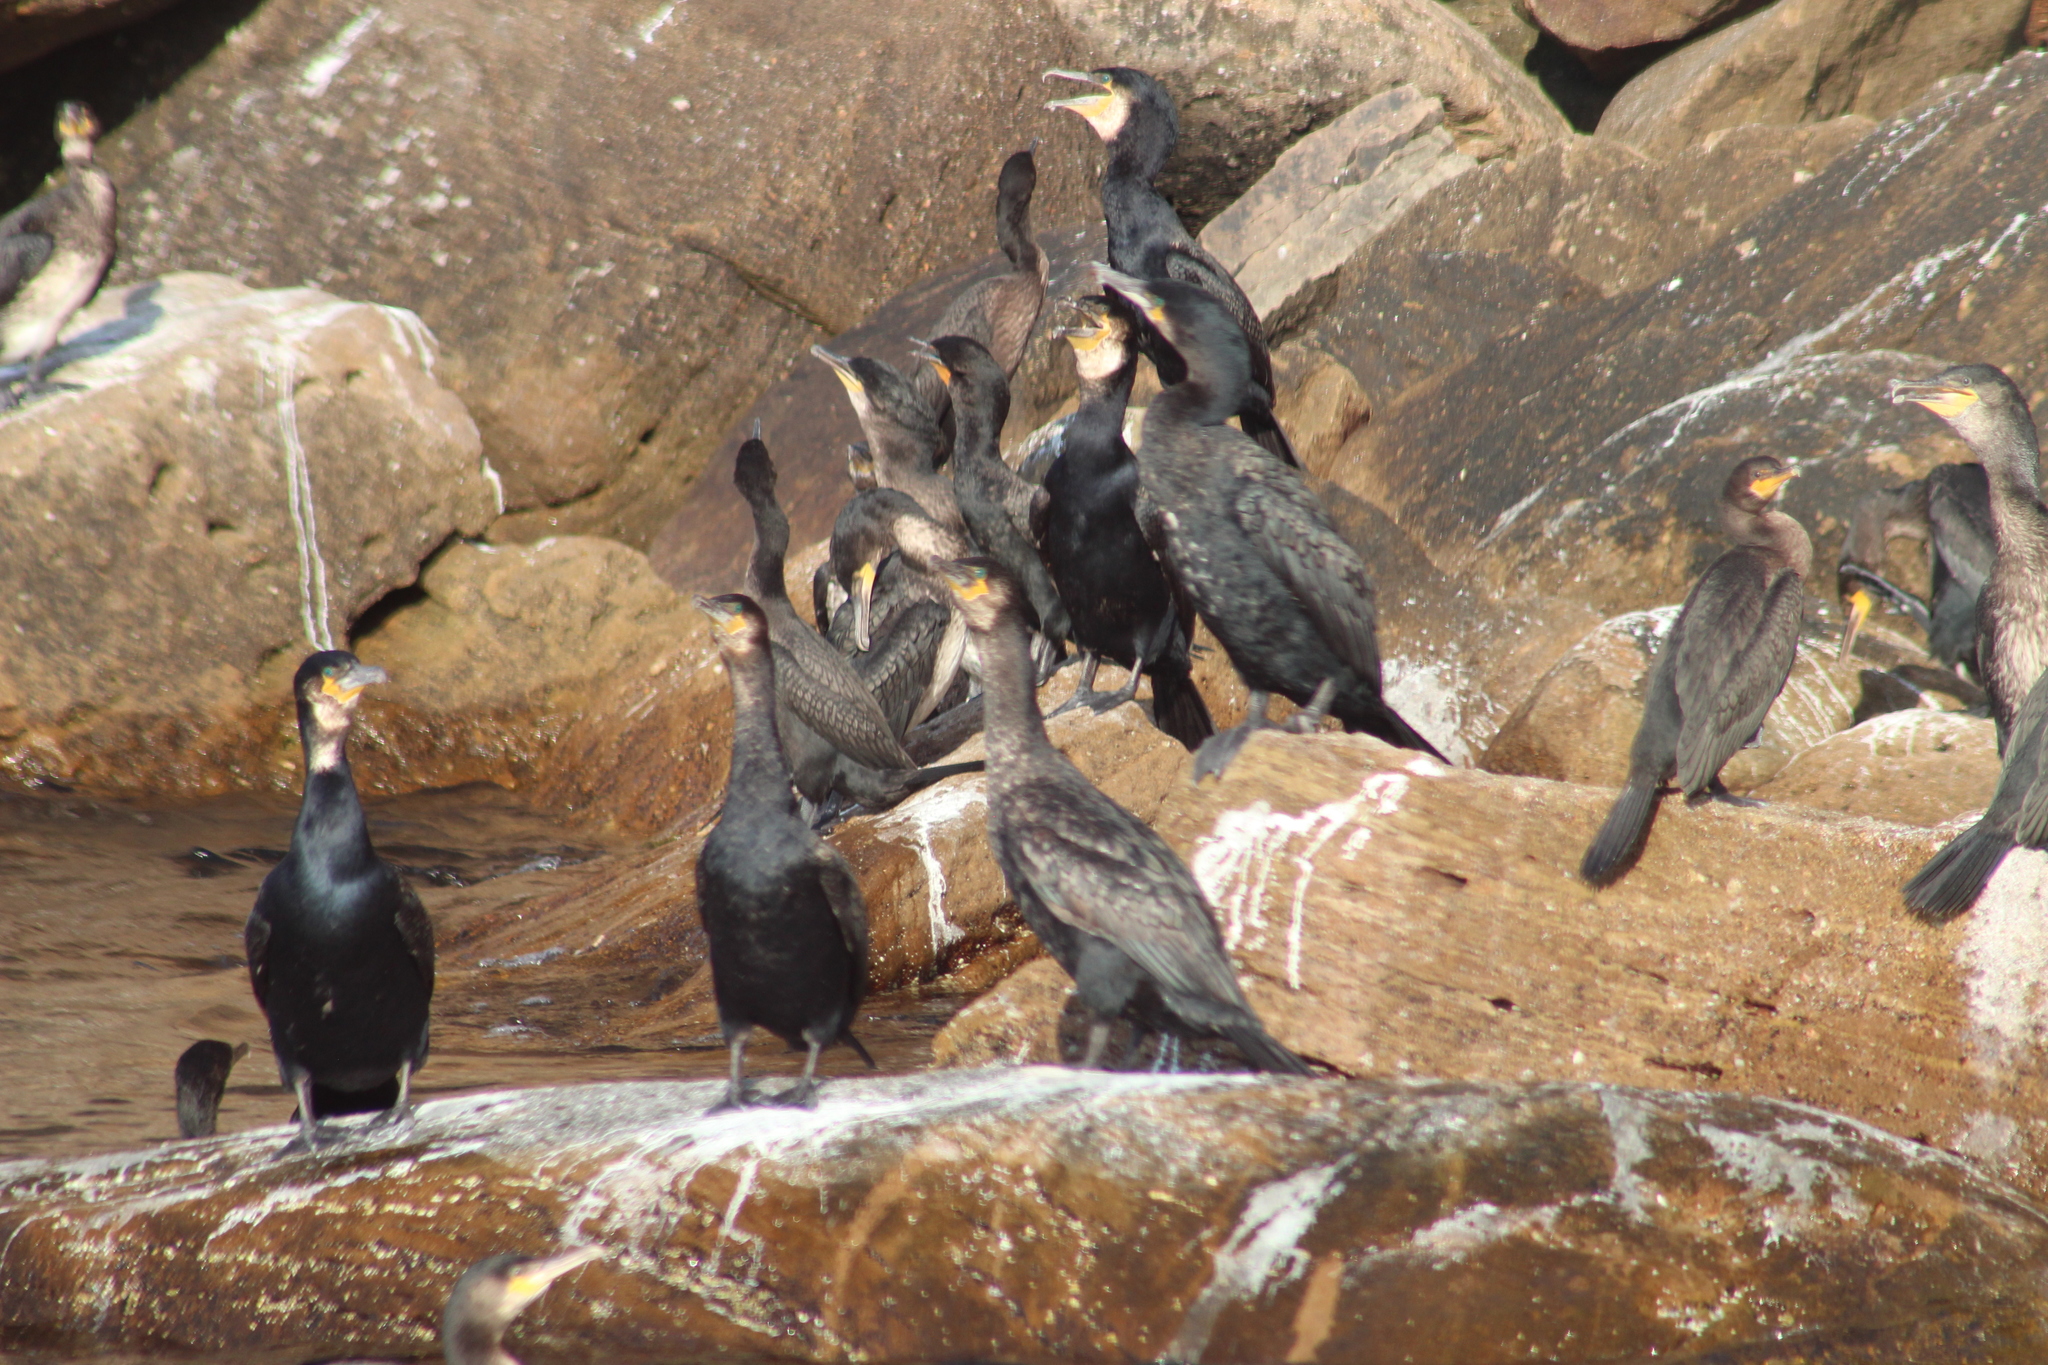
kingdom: Animalia
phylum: Chordata
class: Aves
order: Suliformes
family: Phalacrocoracidae
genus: Phalacrocorax
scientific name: Phalacrocorax carbo
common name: Great cormorant
